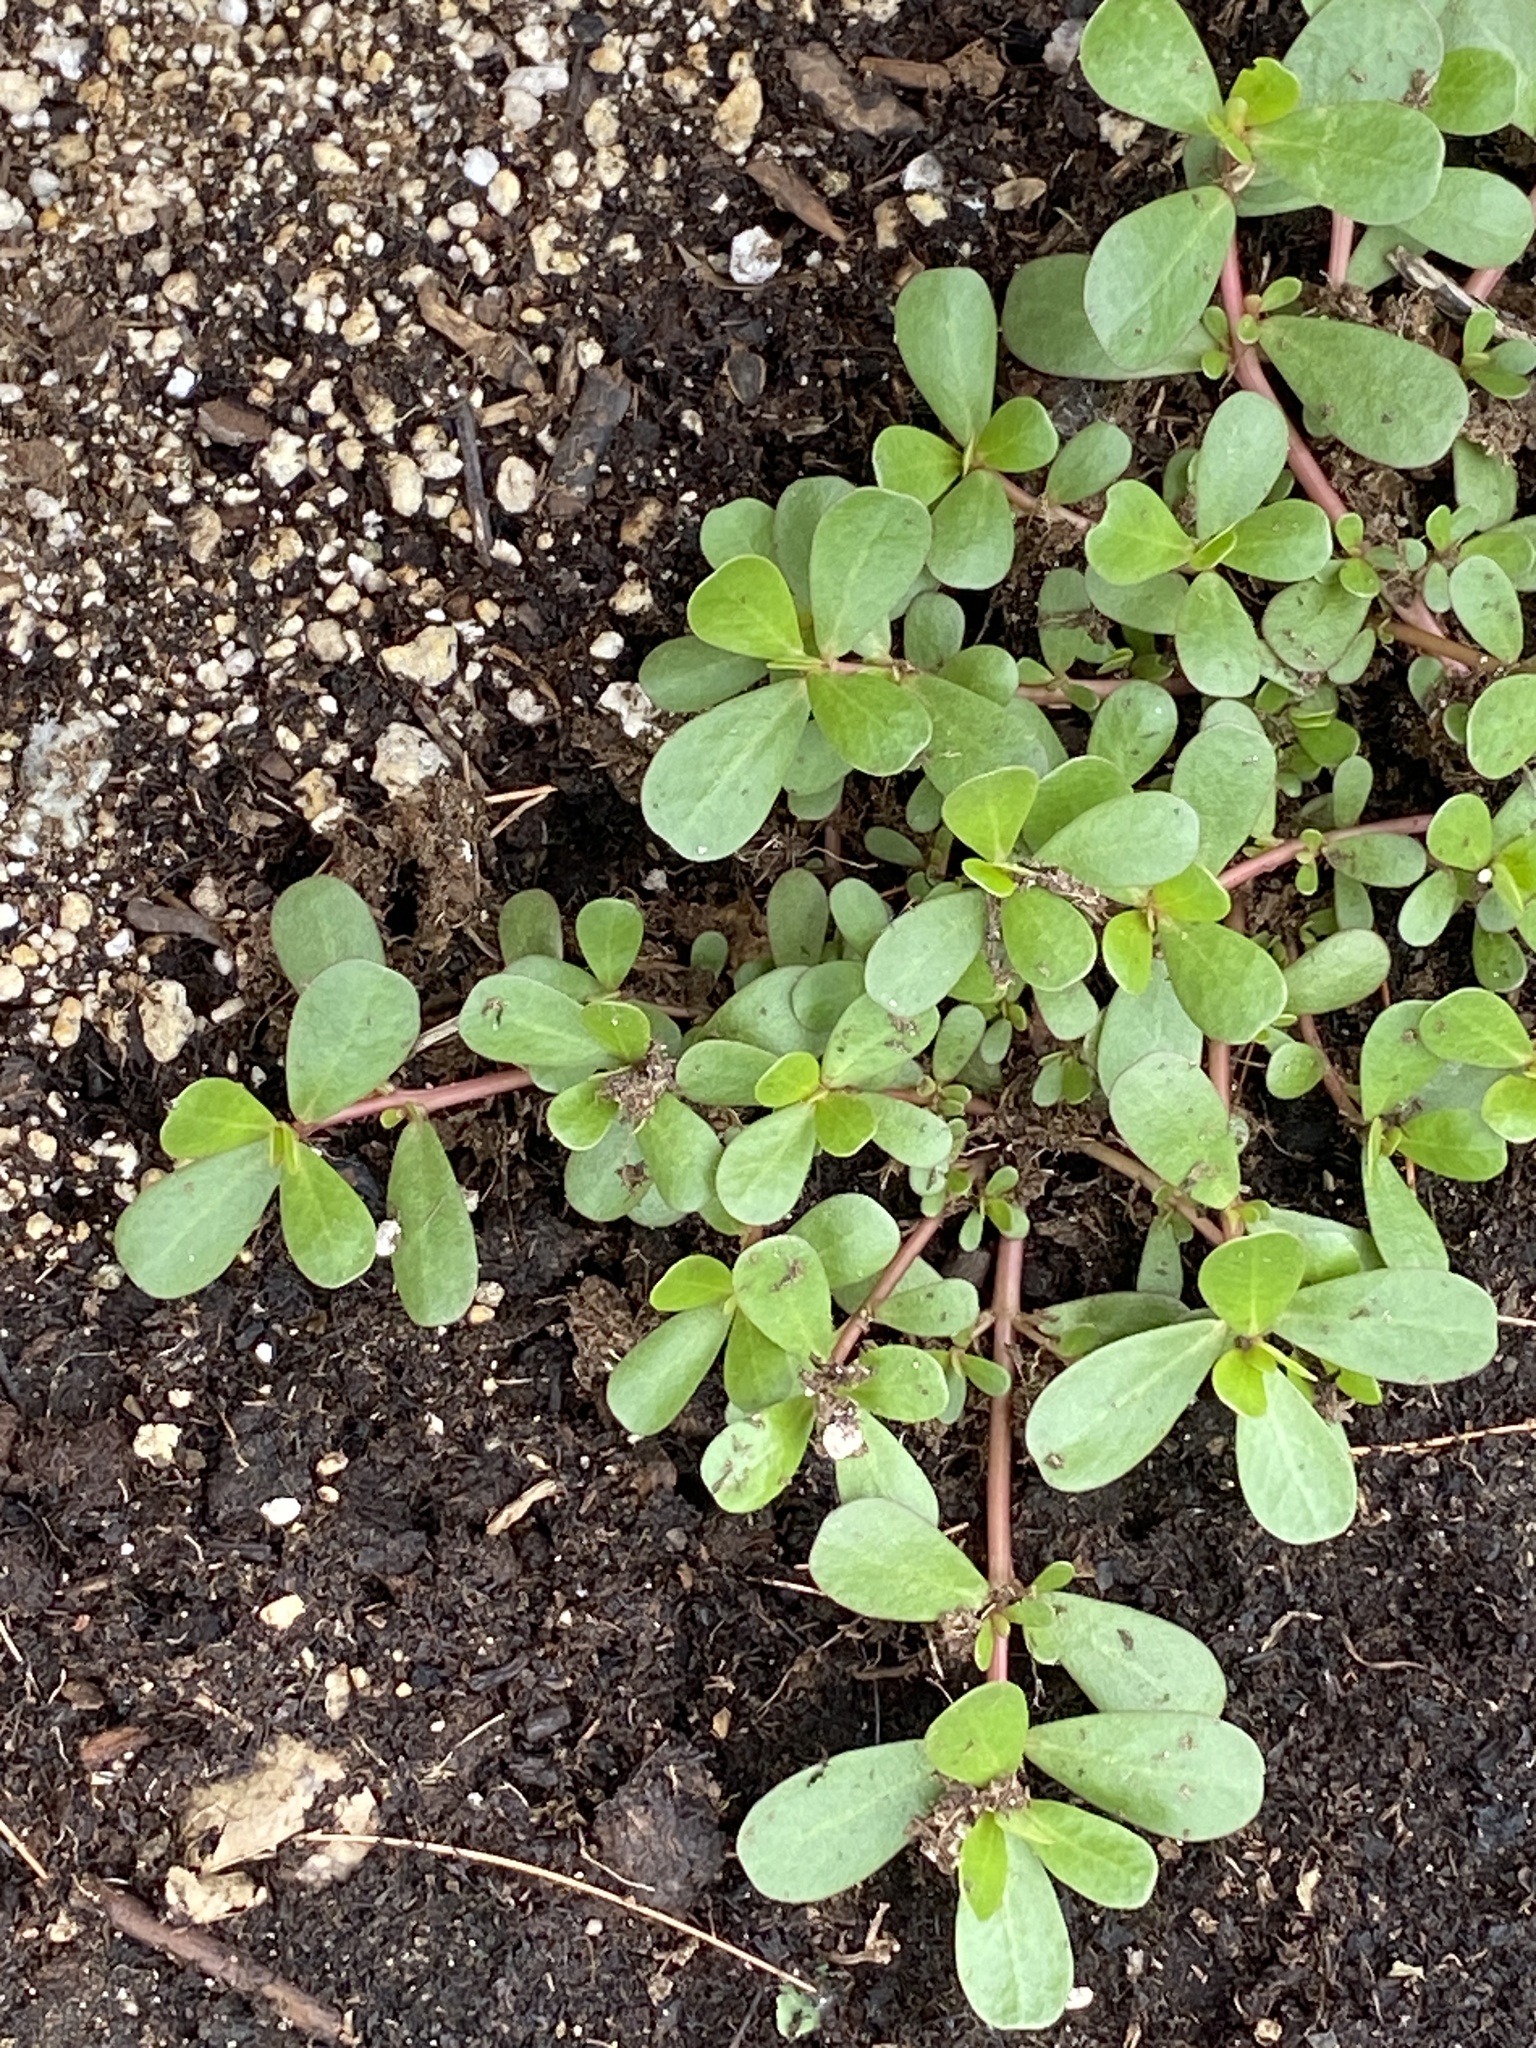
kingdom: Plantae
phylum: Tracheophyta
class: Magnoliopsida
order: Caryophyllales
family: Portulacaceae
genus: Portulaca
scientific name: Portulaca oleracea
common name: Common purslane
